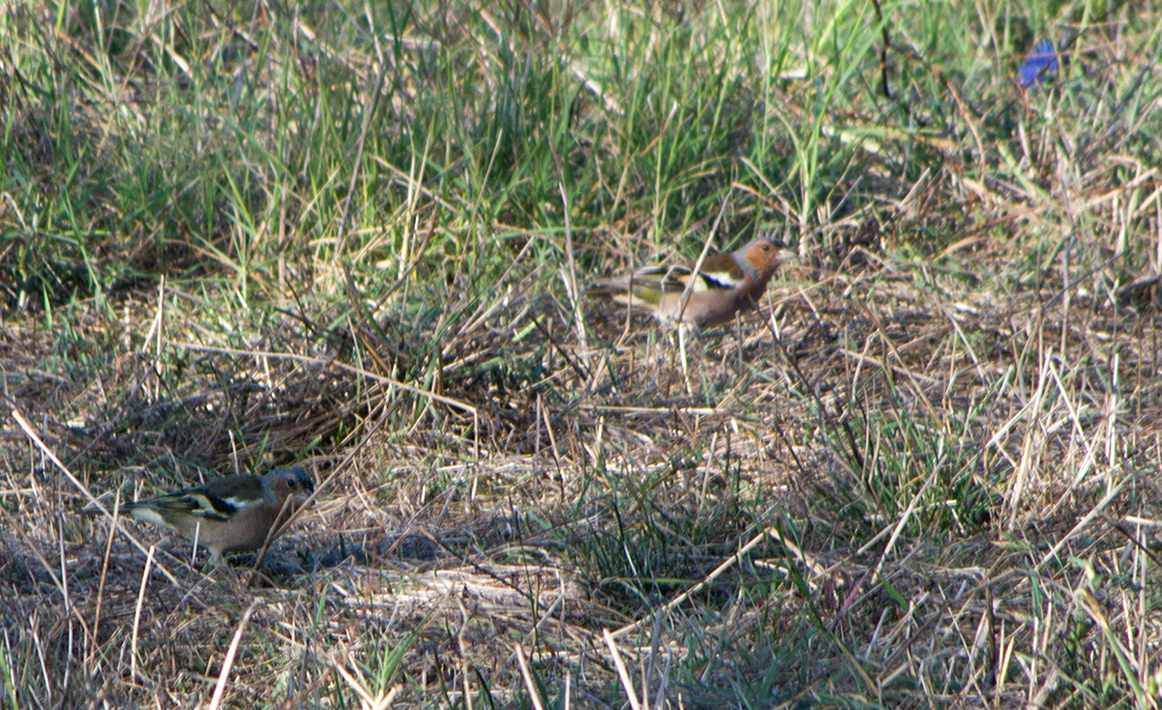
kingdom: Animalia
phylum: Chordata
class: Aves
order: Passeriformes
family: Fringillidae
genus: Fringilla
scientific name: Fringilla coelebs
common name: Common chaffinch
